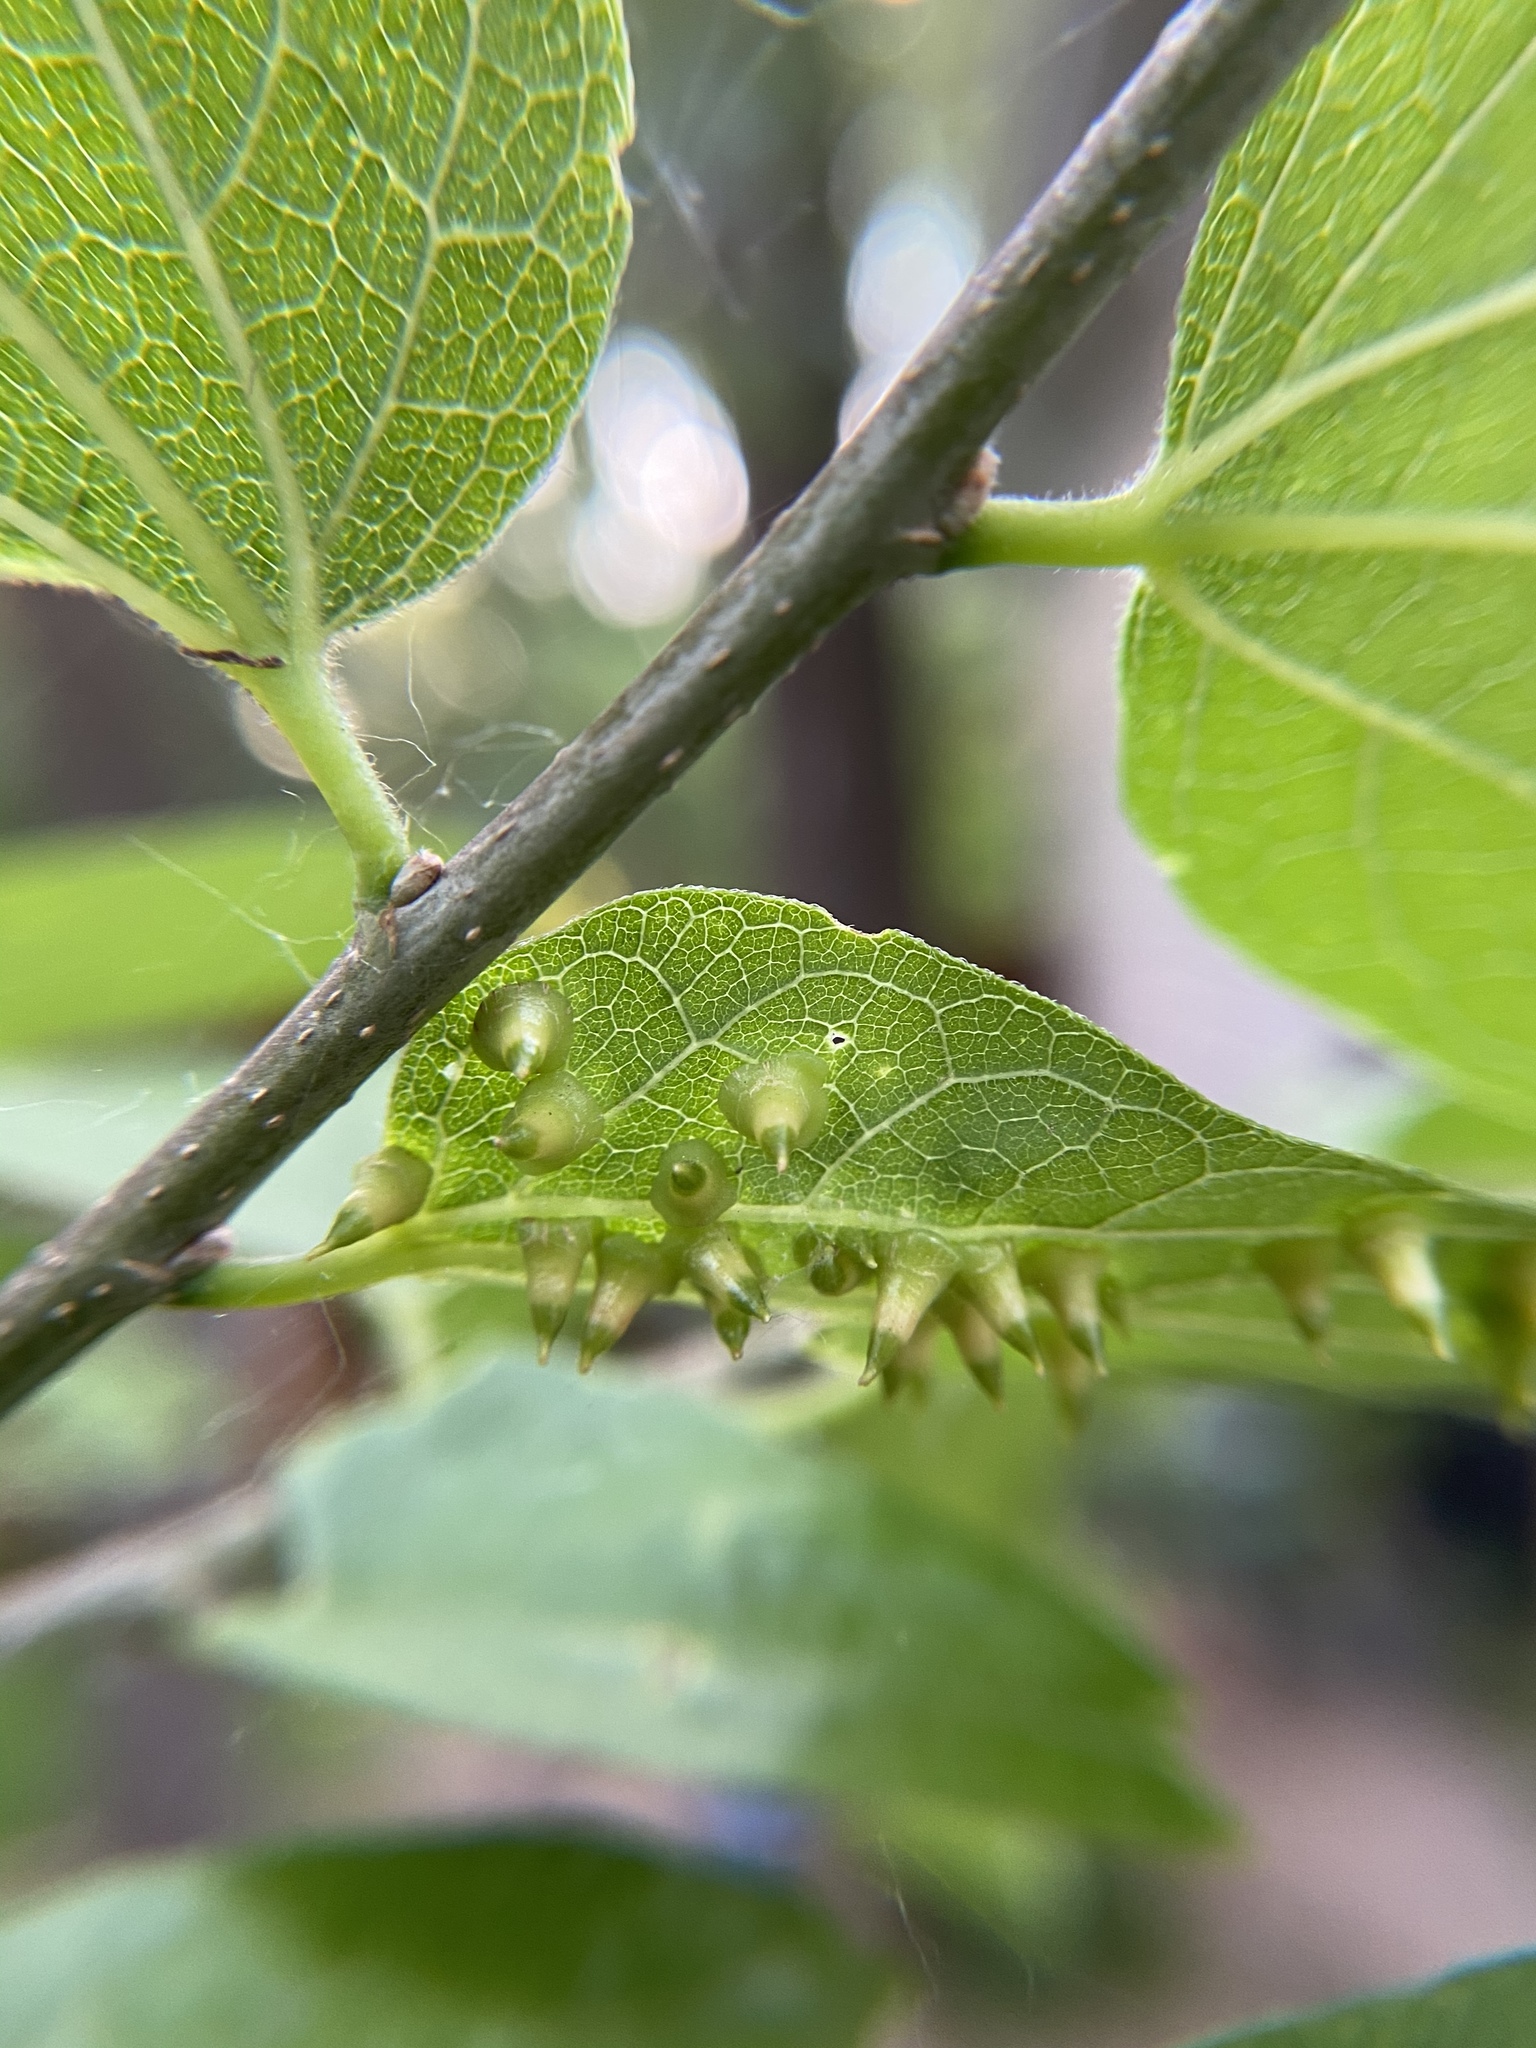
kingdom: Animalia
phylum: Arthropoda
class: Insecta
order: Diptera
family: Cecidomyiidae
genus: Celticecis
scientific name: Celticecis spiniformis
